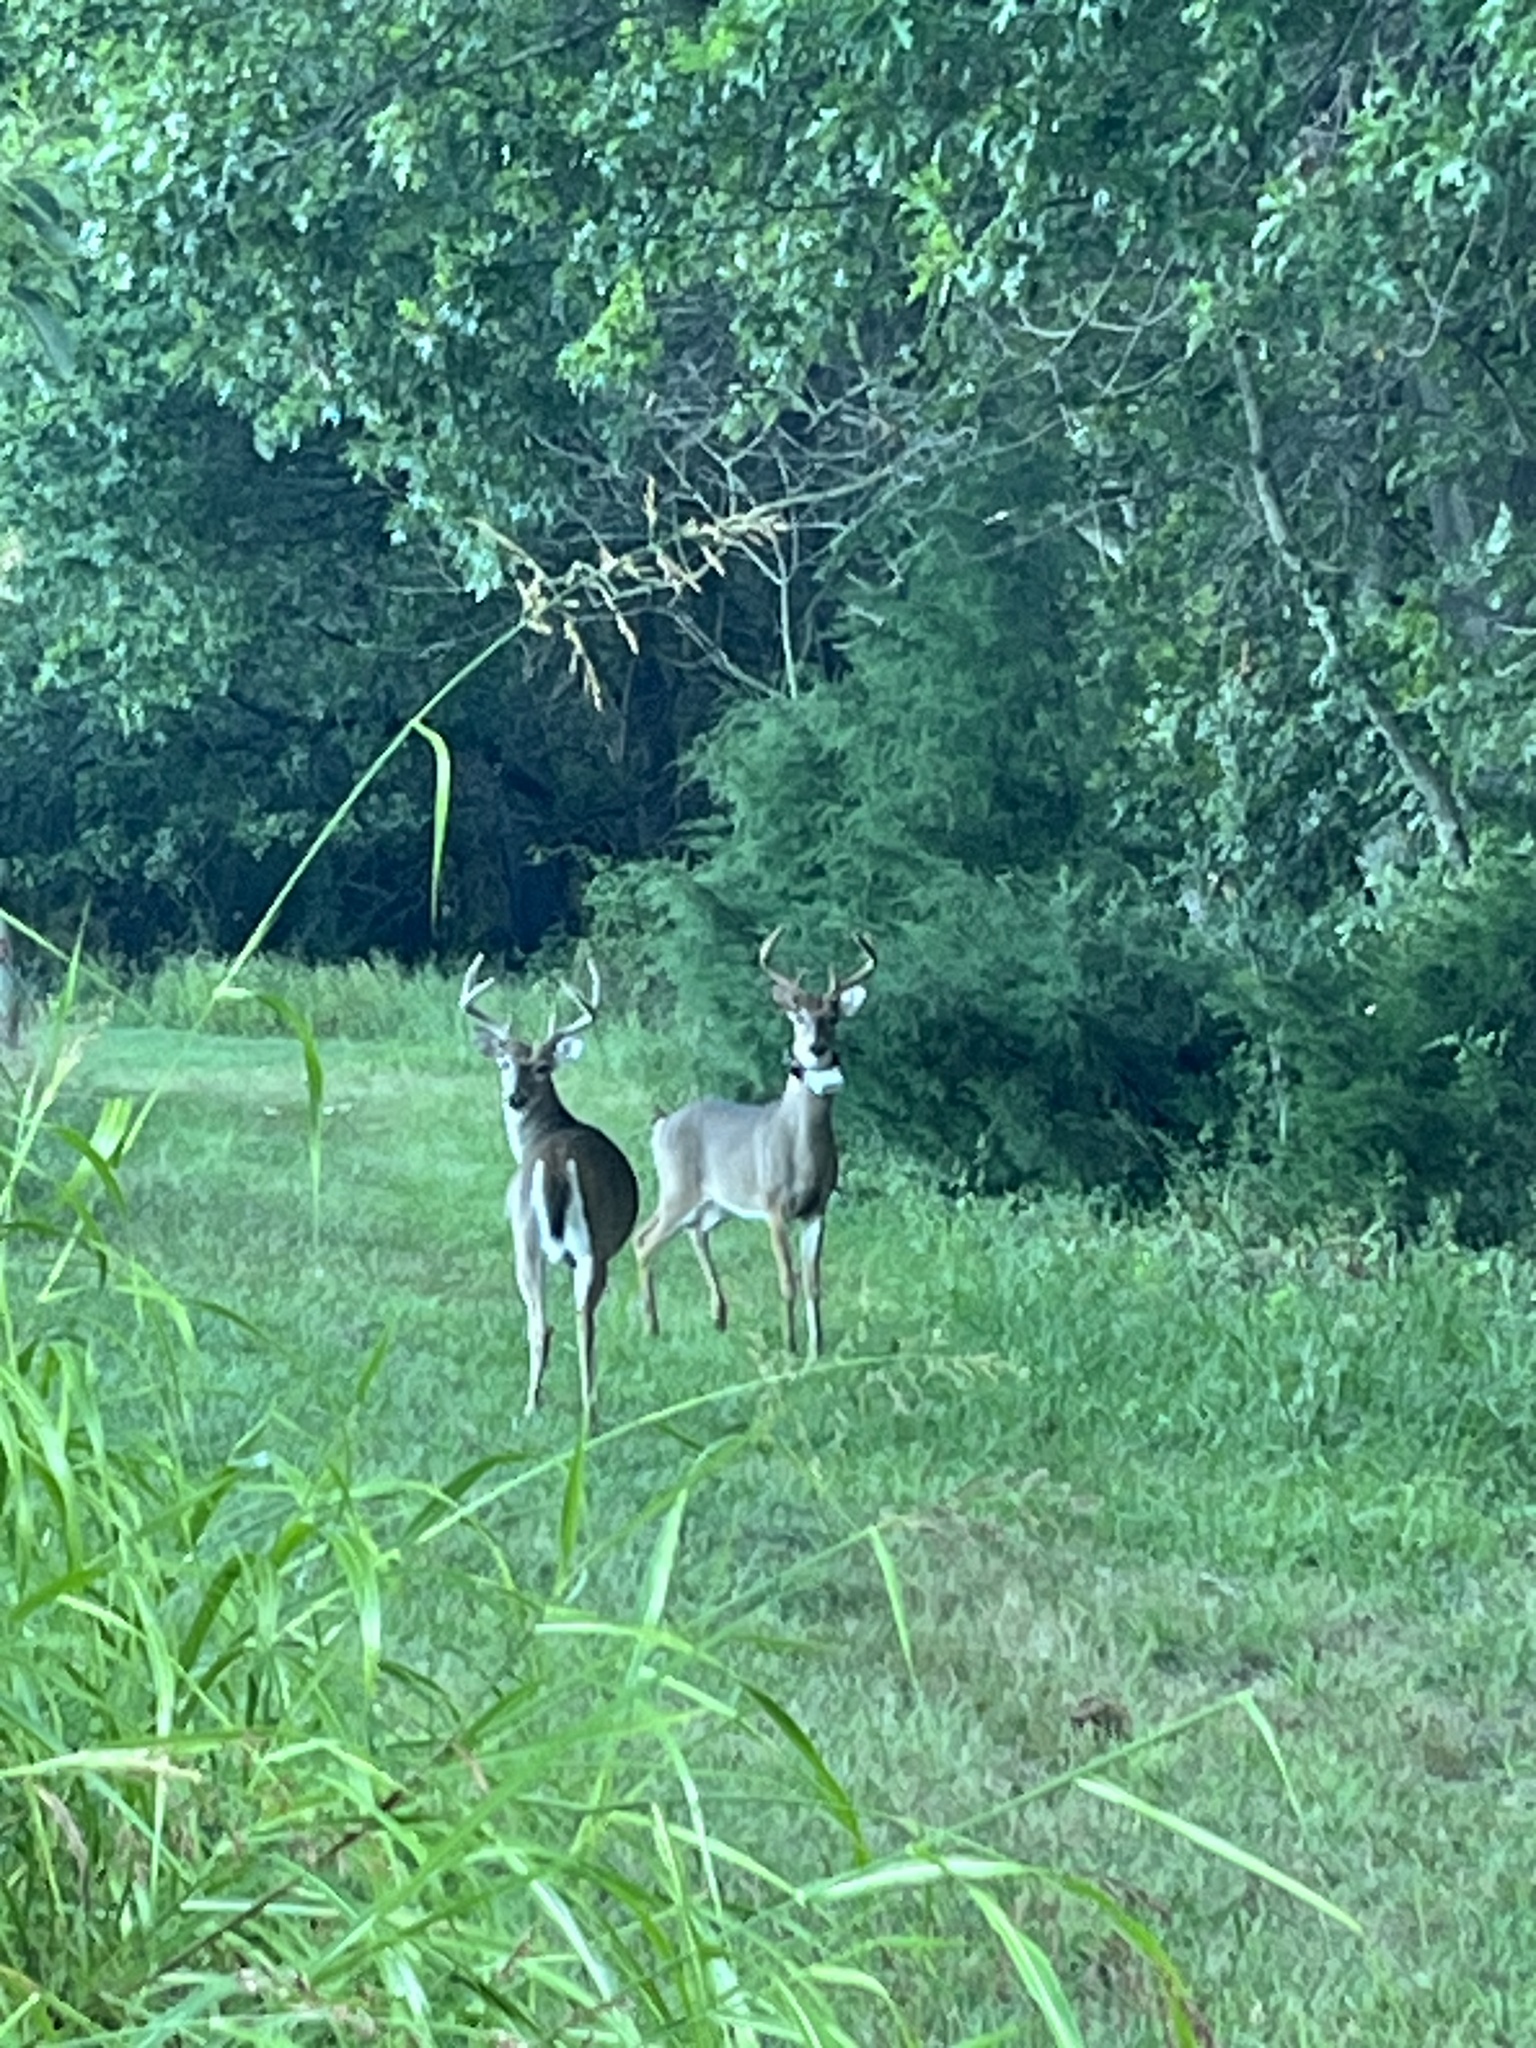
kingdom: Animalia
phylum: Chordata
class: Mammalia
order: Artiodactyla
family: Cervidae
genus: Odocoileus
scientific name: Odocoileus virginianus
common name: White-tailed deer
